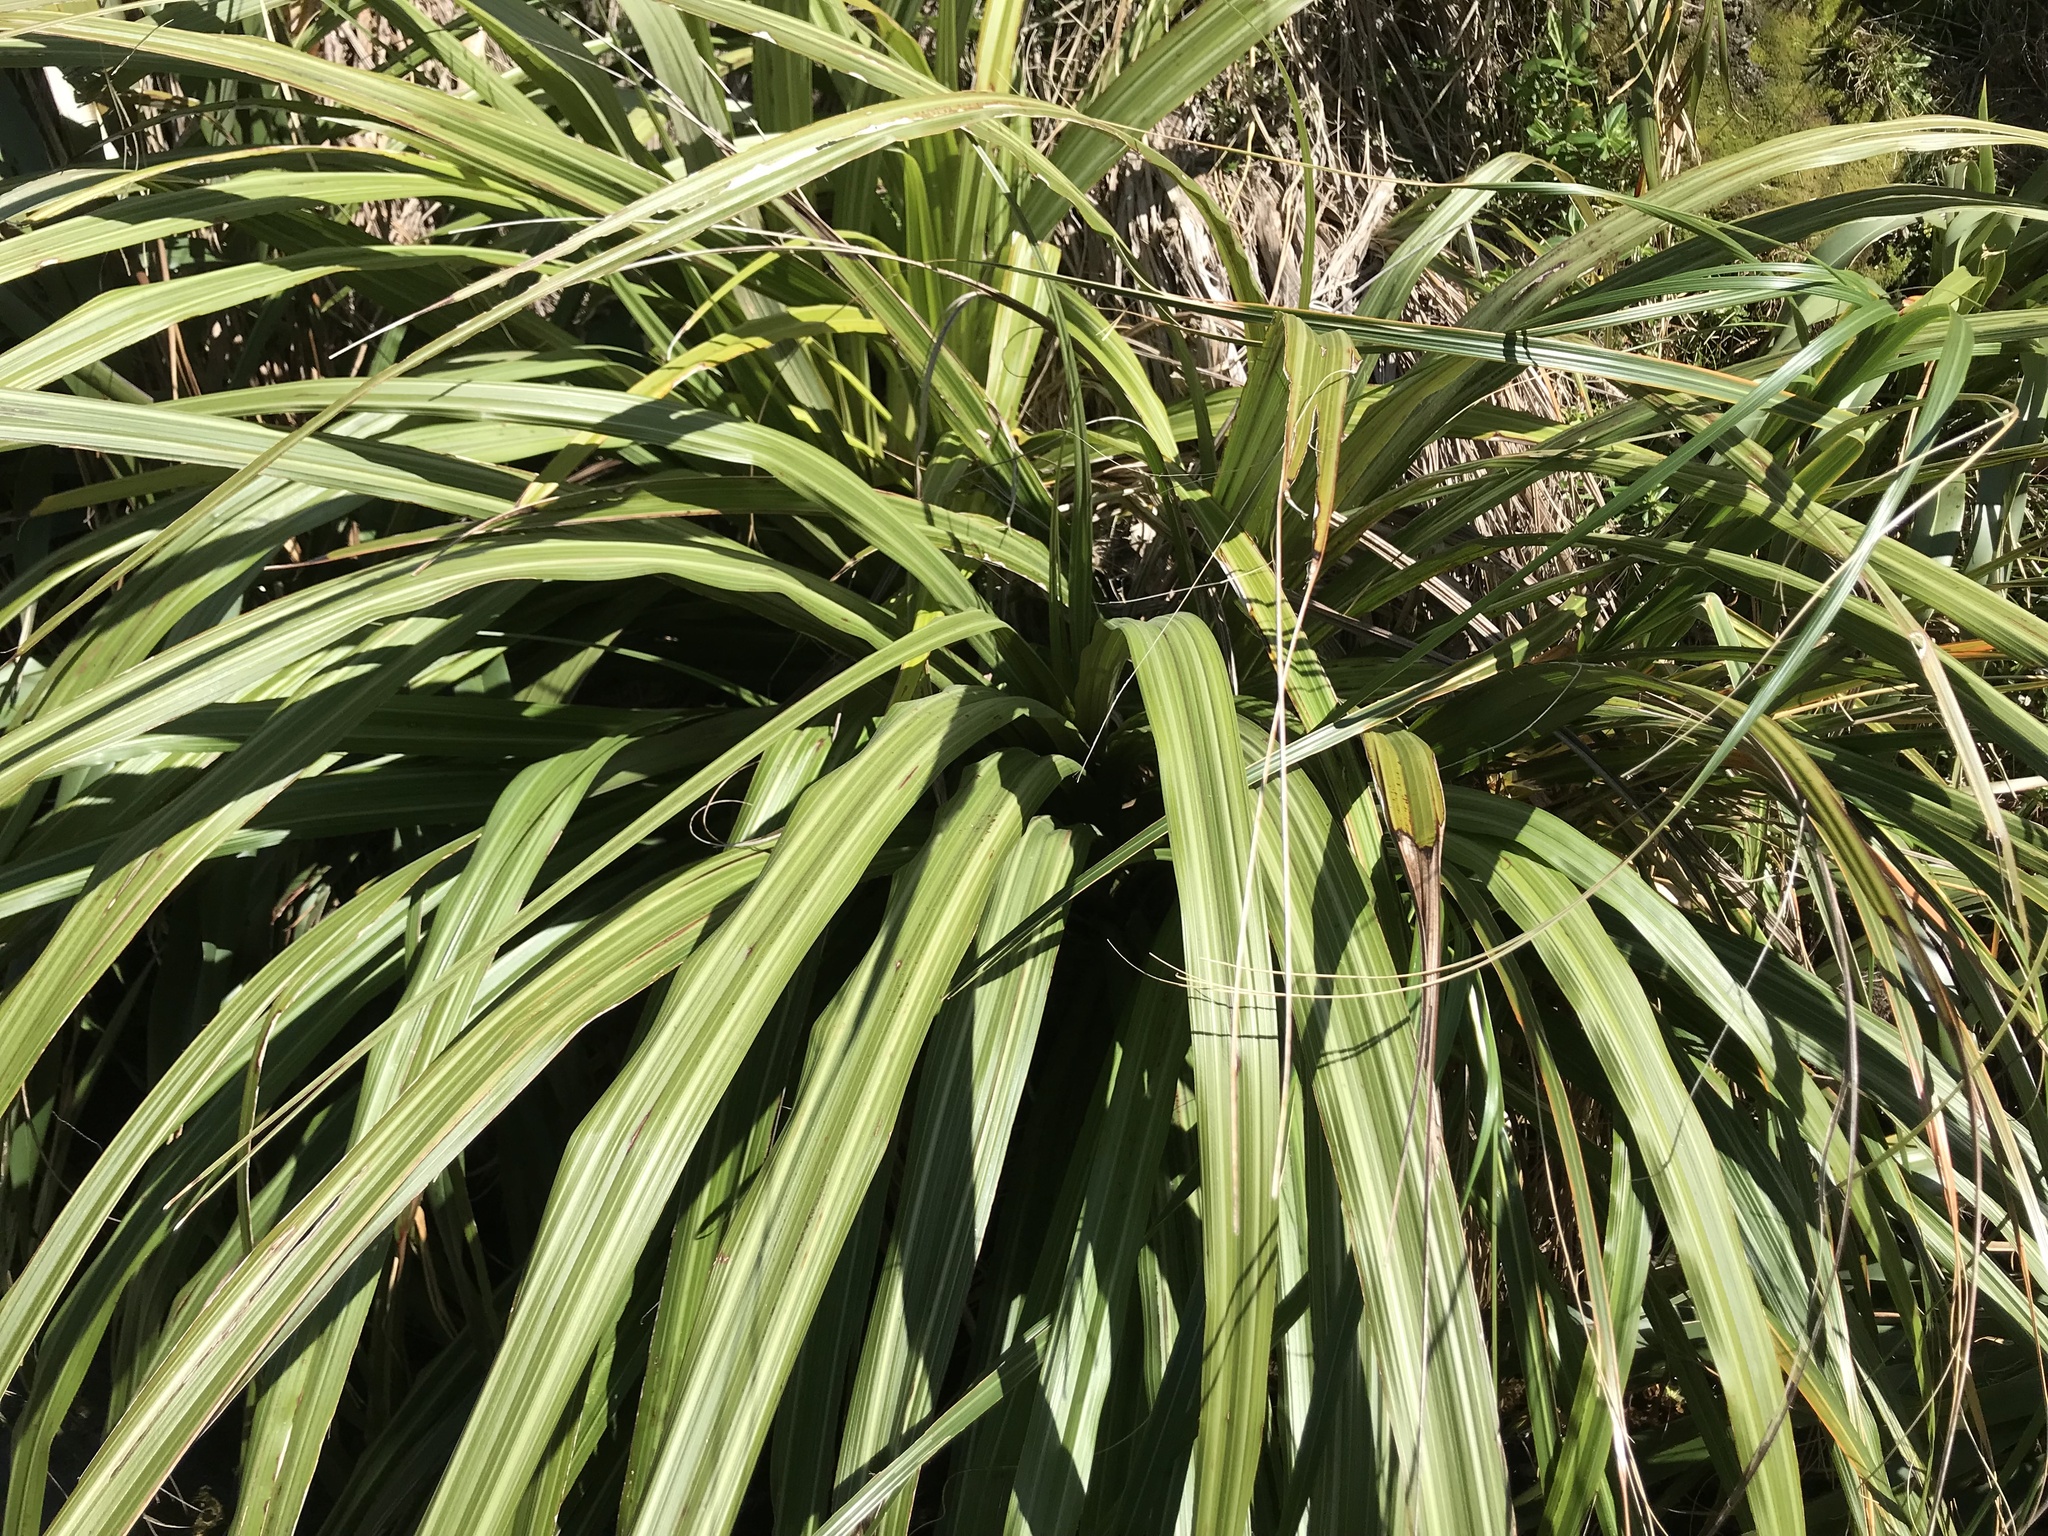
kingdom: Plantae
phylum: Tracheophyta
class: Liliopsida
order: Asparagales
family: Asteliaceae
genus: Astelia
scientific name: Astelia fragrans
